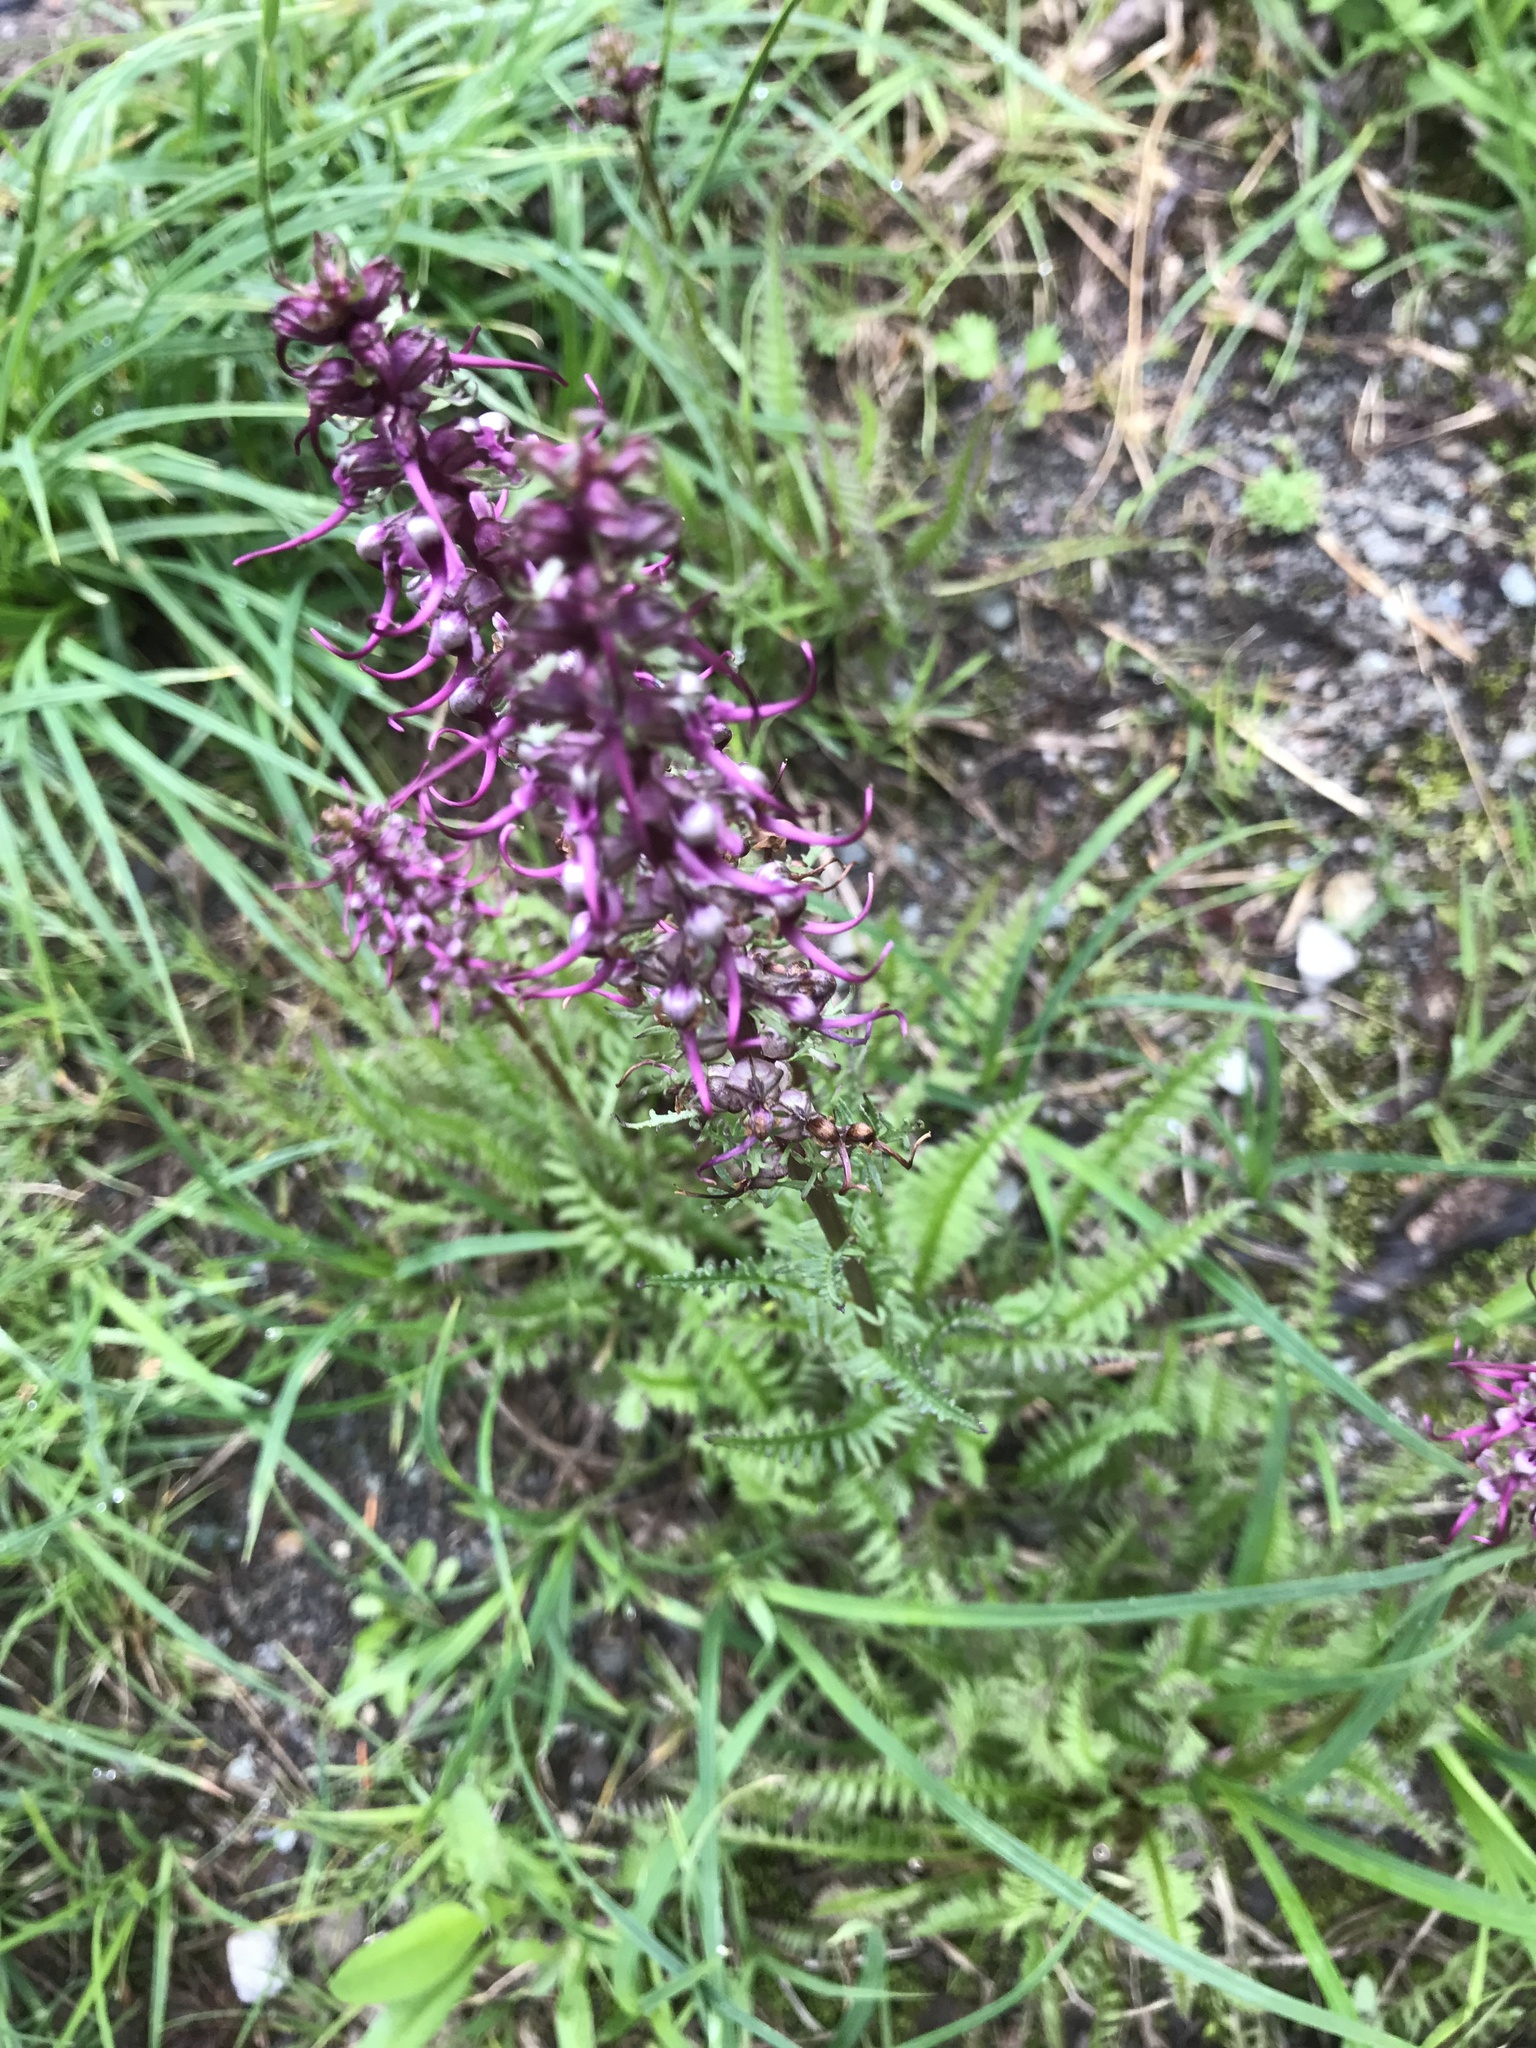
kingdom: Plantae
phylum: Tracheophyta
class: Magnoliopsida
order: Lamiales
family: Orobanchaceae
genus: Pedicularis
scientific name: Pedicularis groenlandica
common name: Elephant's-head
